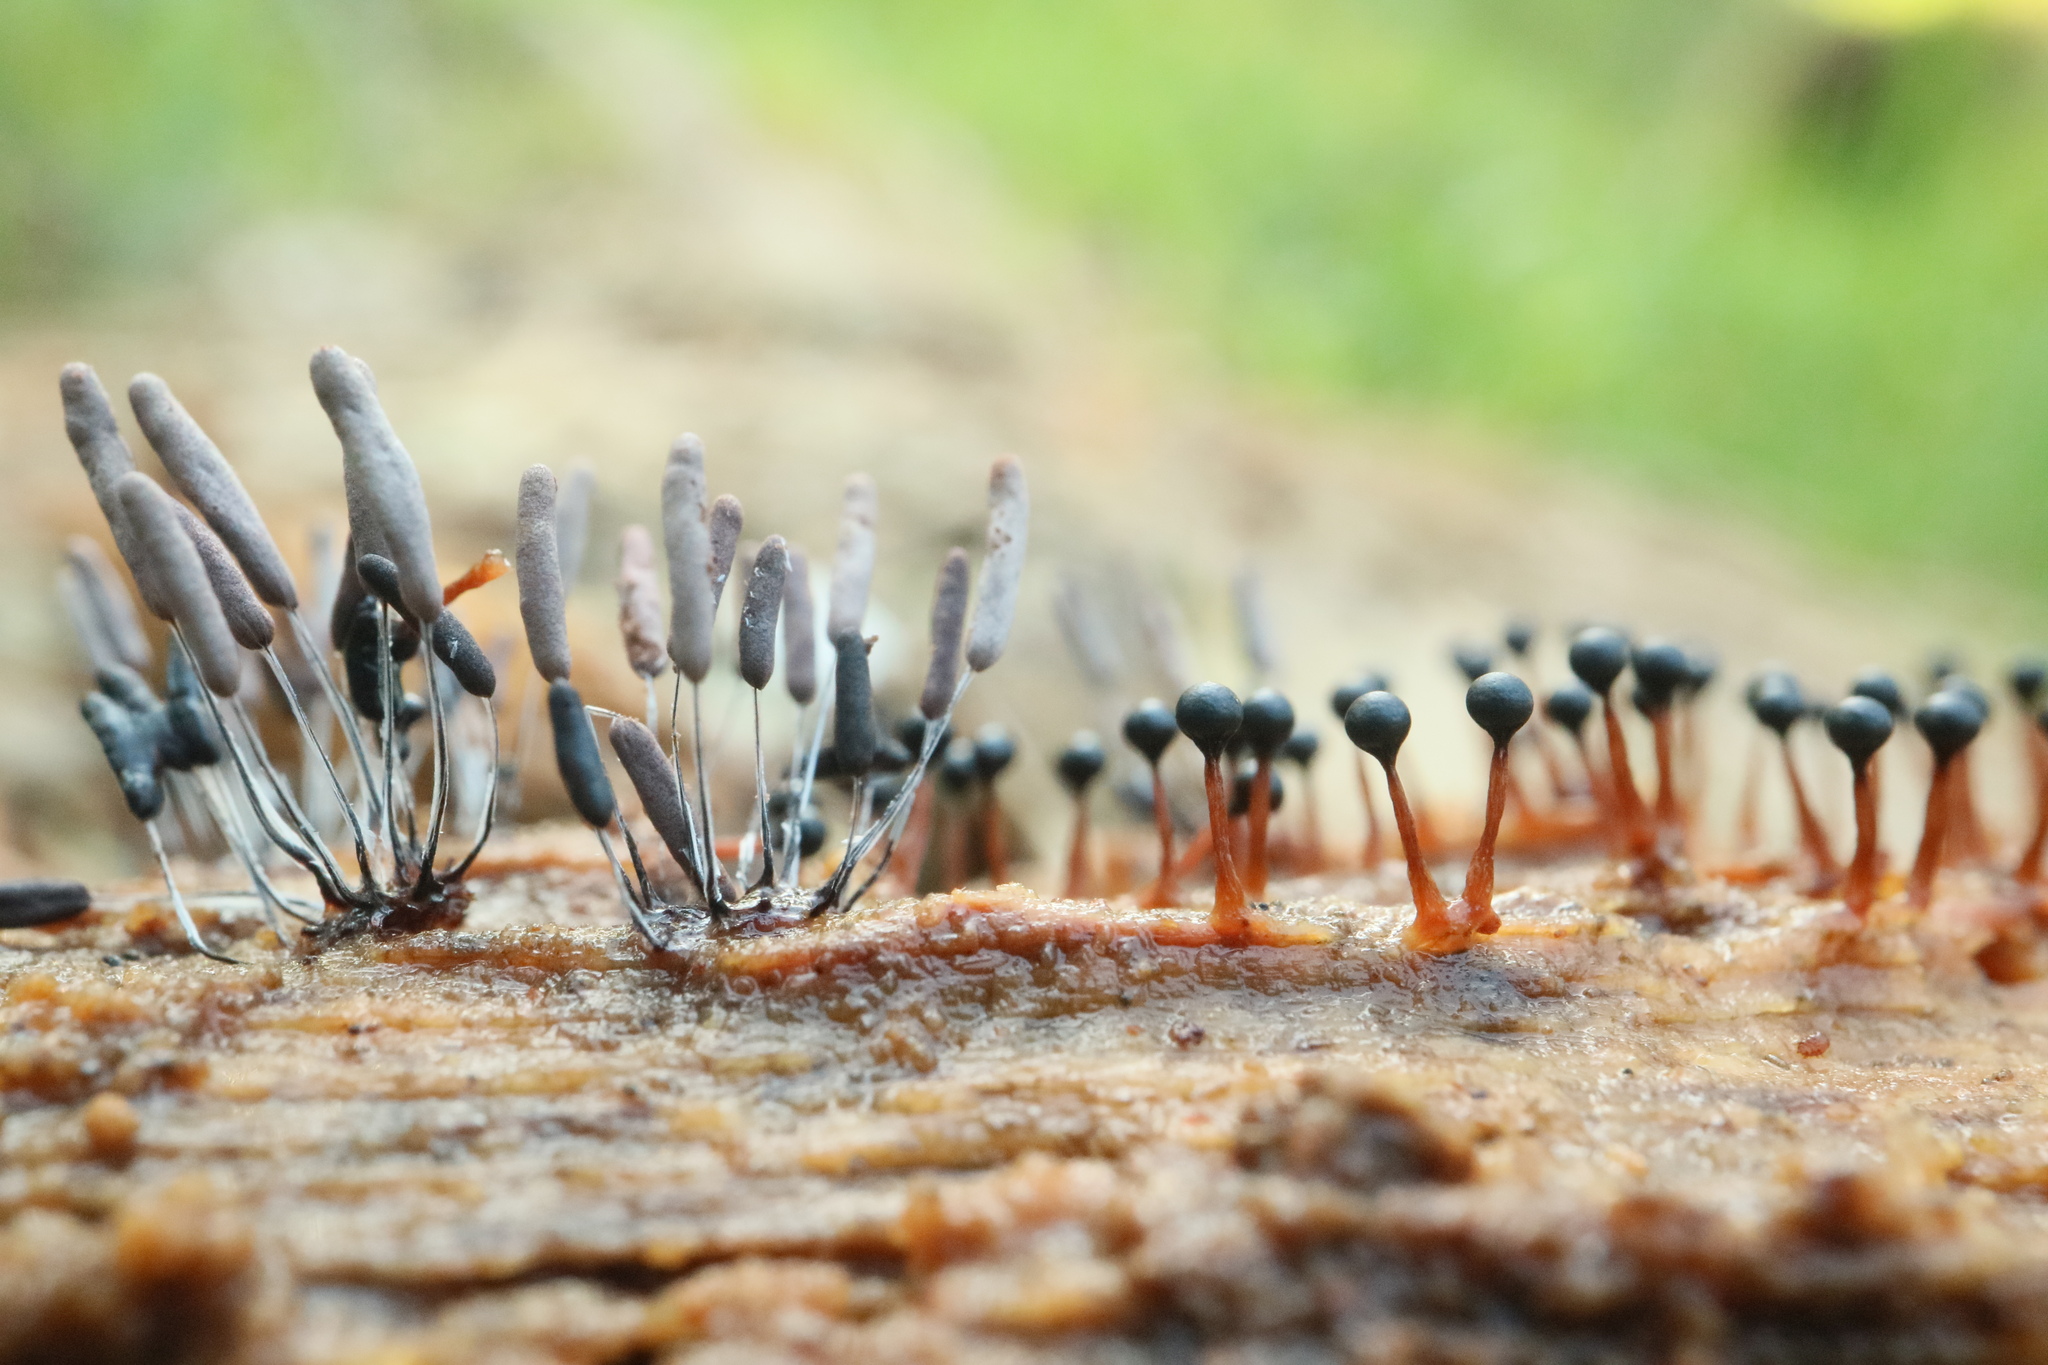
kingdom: Protozoa
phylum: Mycetozoa
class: Myxomycetes
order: Stemonitidales
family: Stemonitidaceae
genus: Stemonitopsis
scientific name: Stemonitopsis typhina
